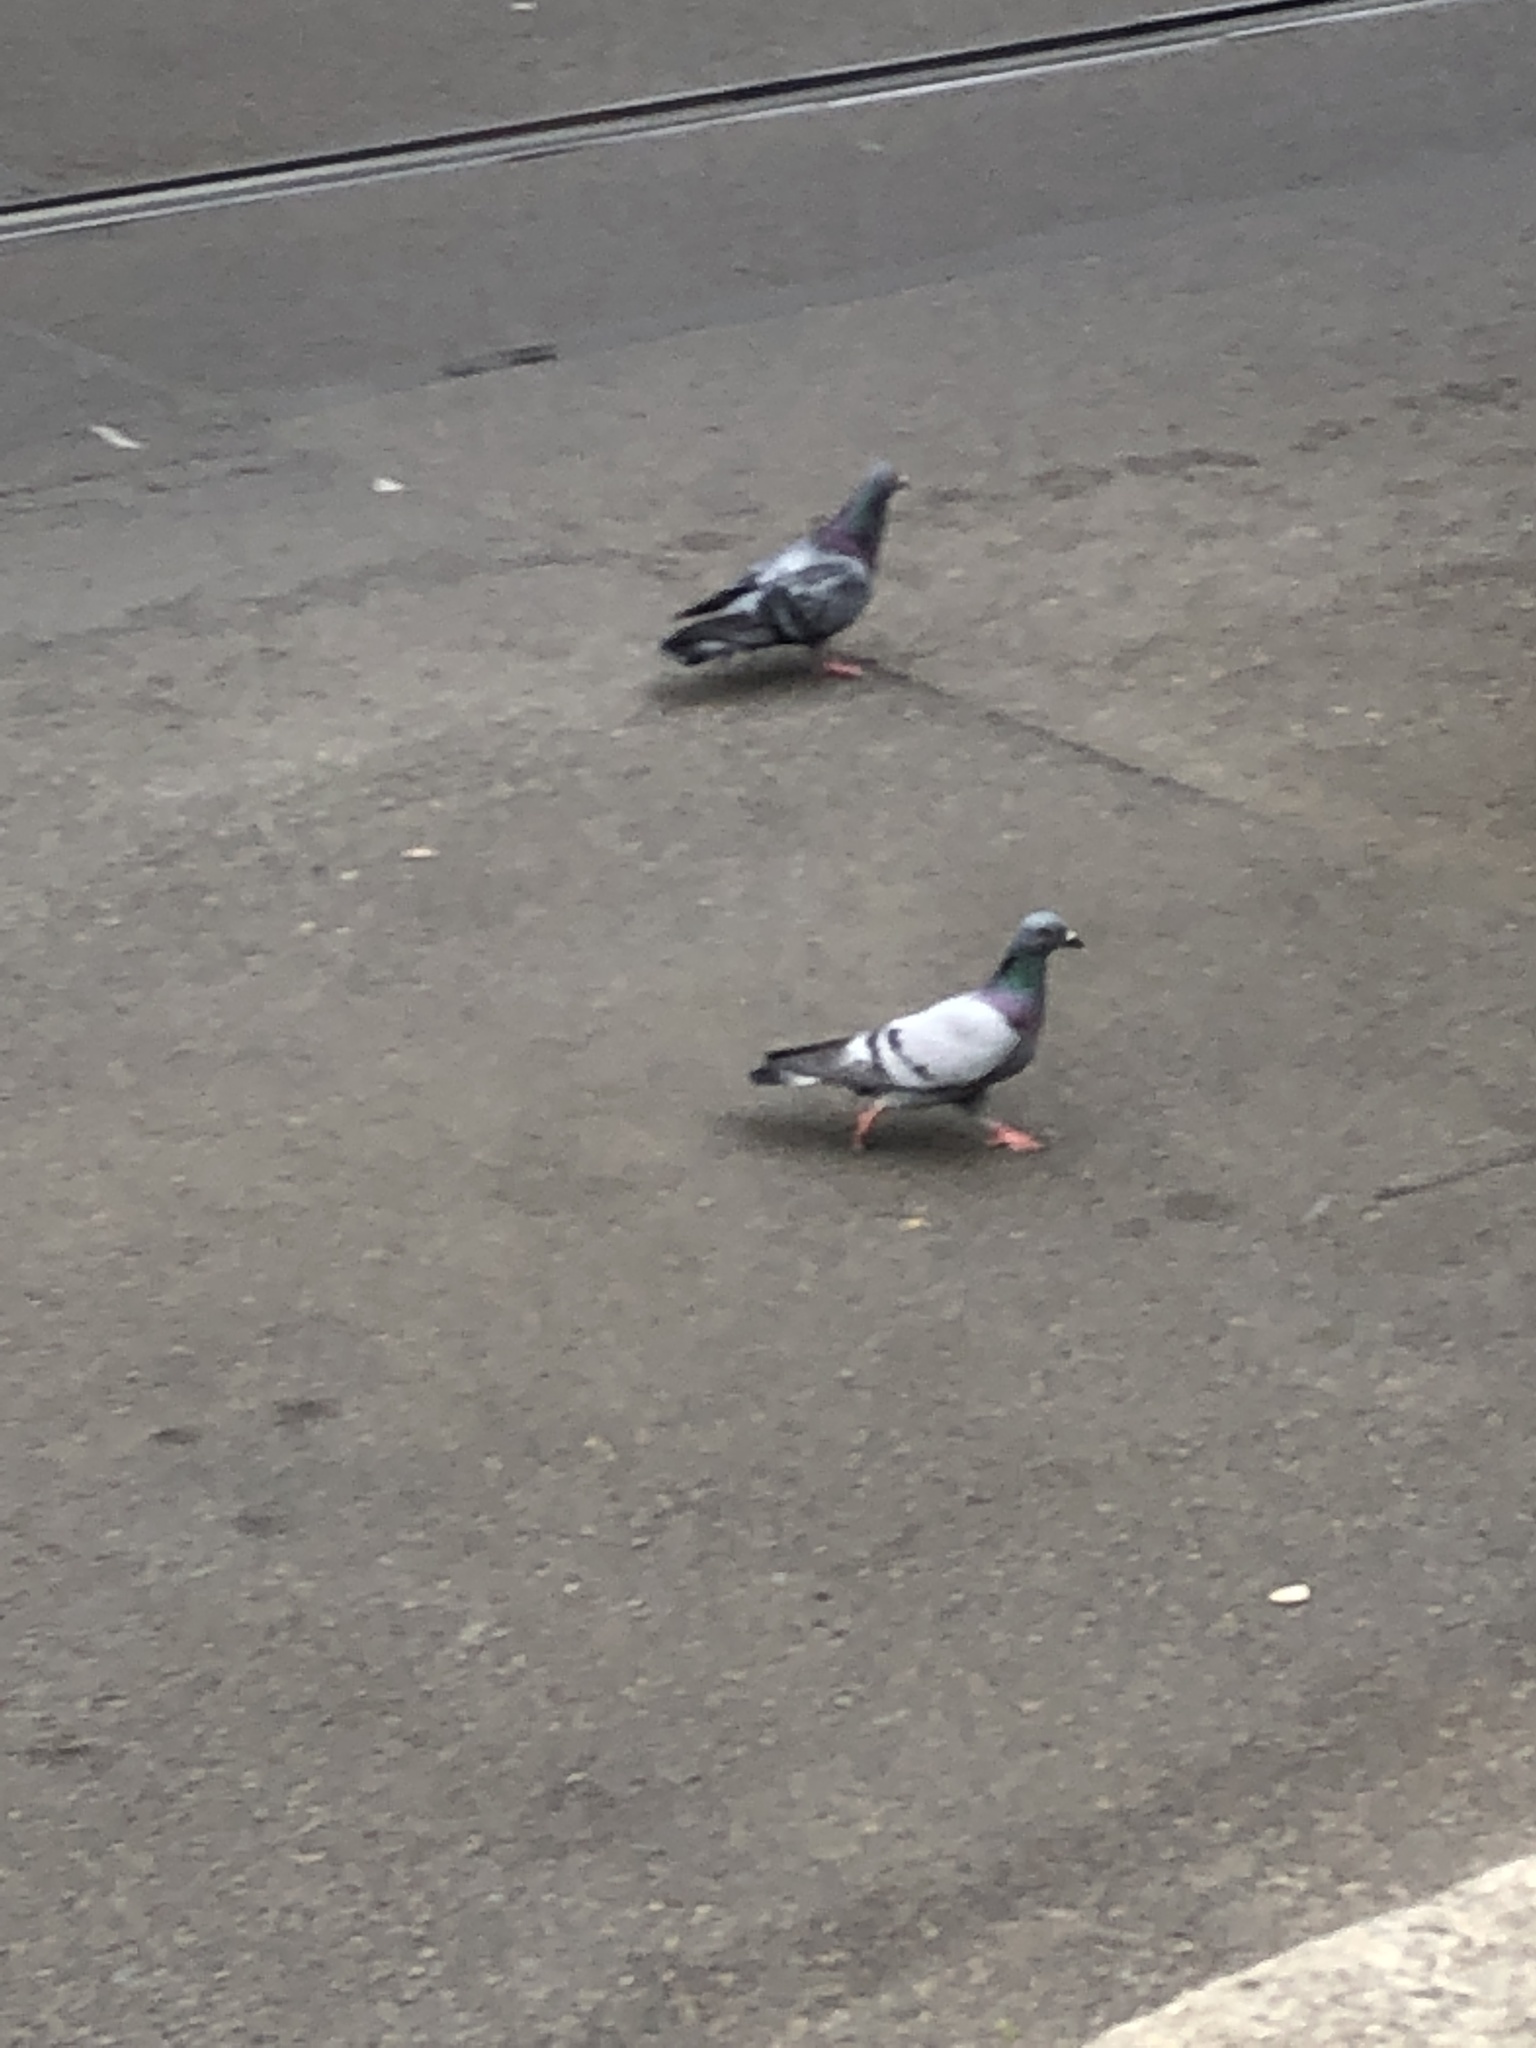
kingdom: Animalia
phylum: Chordata
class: Aves
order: Columbiformes
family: Columbidae
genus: Columba
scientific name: Columba livia
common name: Rock pigeon
